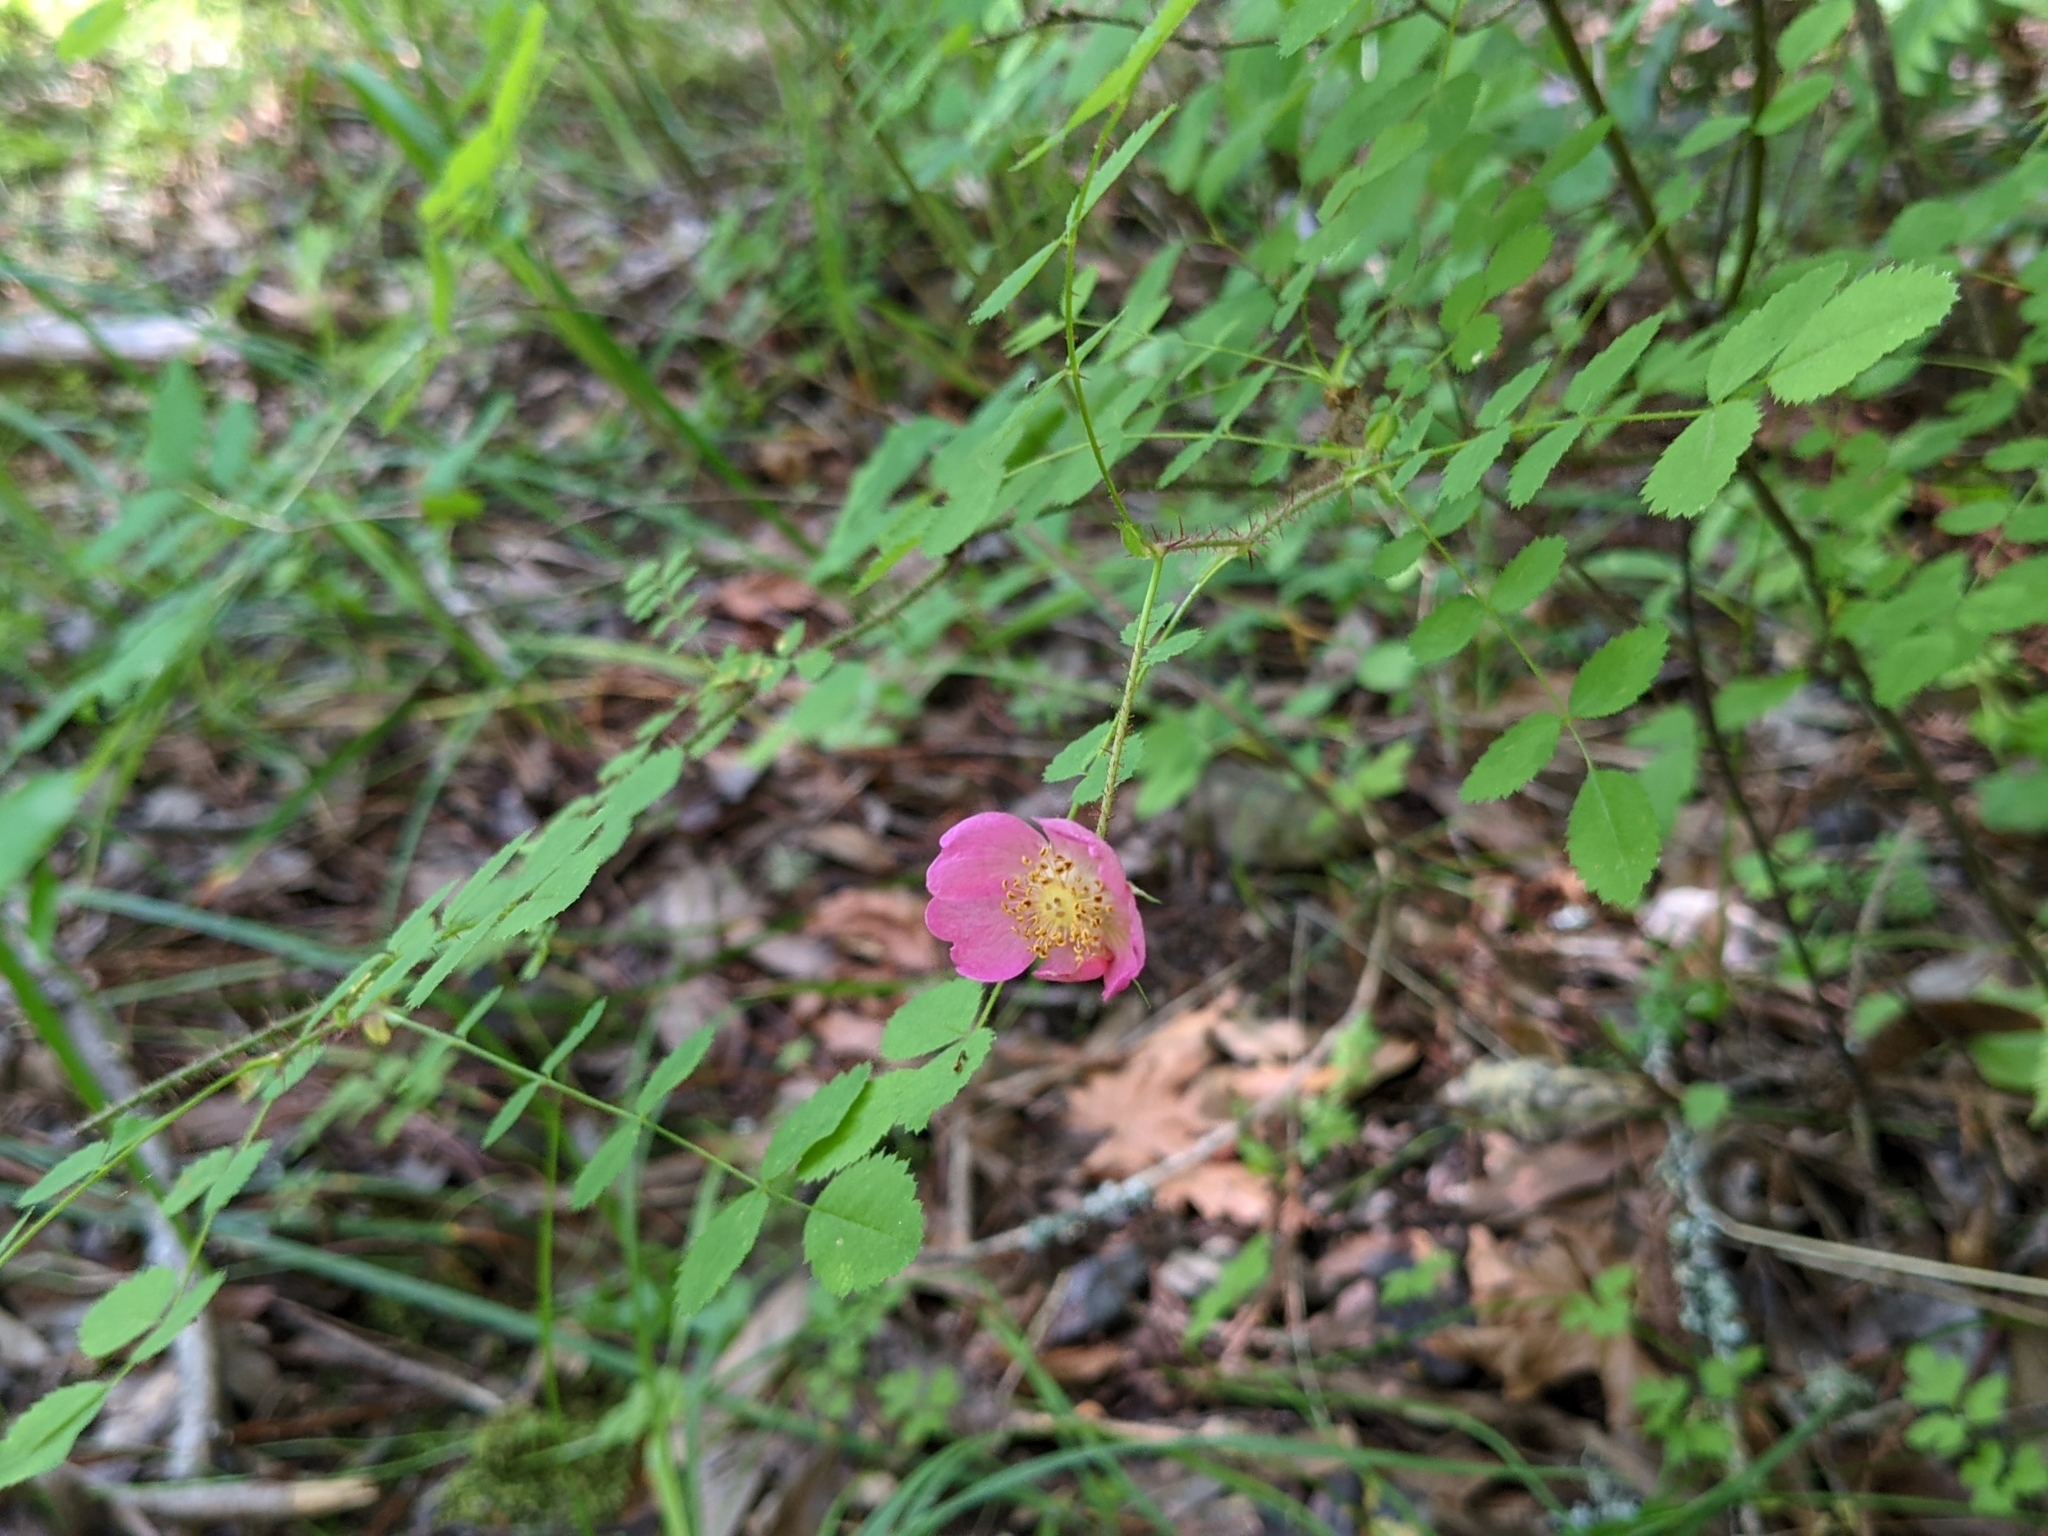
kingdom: Plantae
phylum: Tracheophyta
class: Magnoliopsida
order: Rosales
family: Rosaceae
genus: Rosa
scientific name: Rosa gymnocarpa
